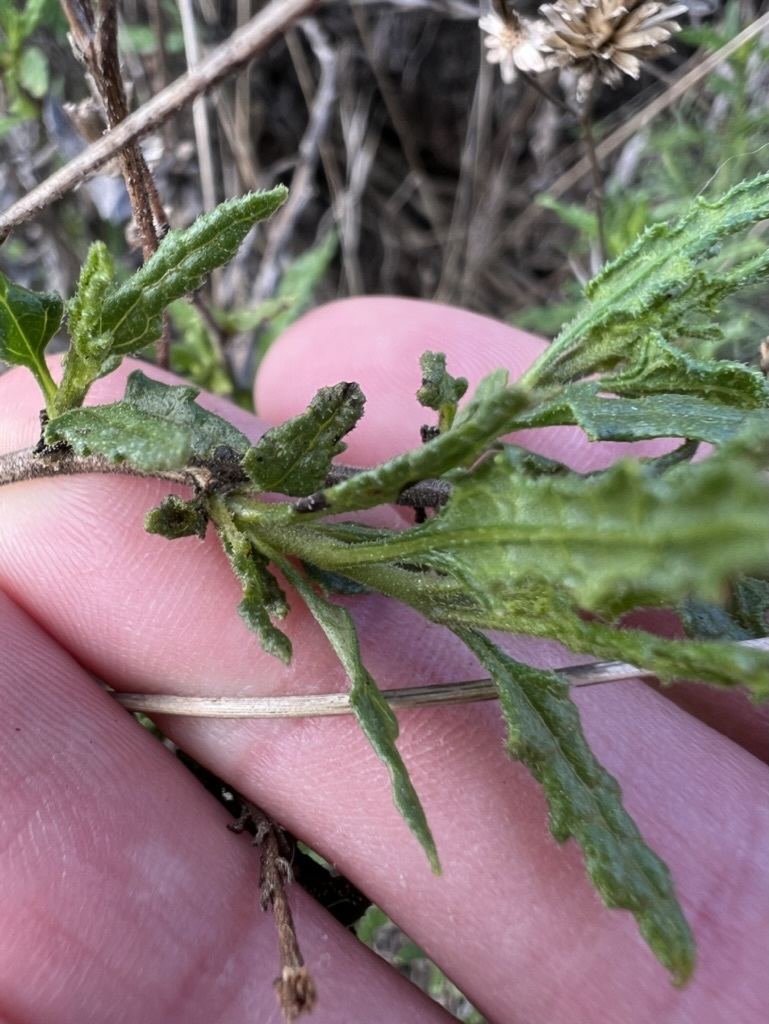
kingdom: Plantae
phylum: Tracheophyta
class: Magnoliopsida
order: Asterales
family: Asteraceae
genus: Bahiopsis
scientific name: Bahiopsis laciniata
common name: San diego county viguiera
